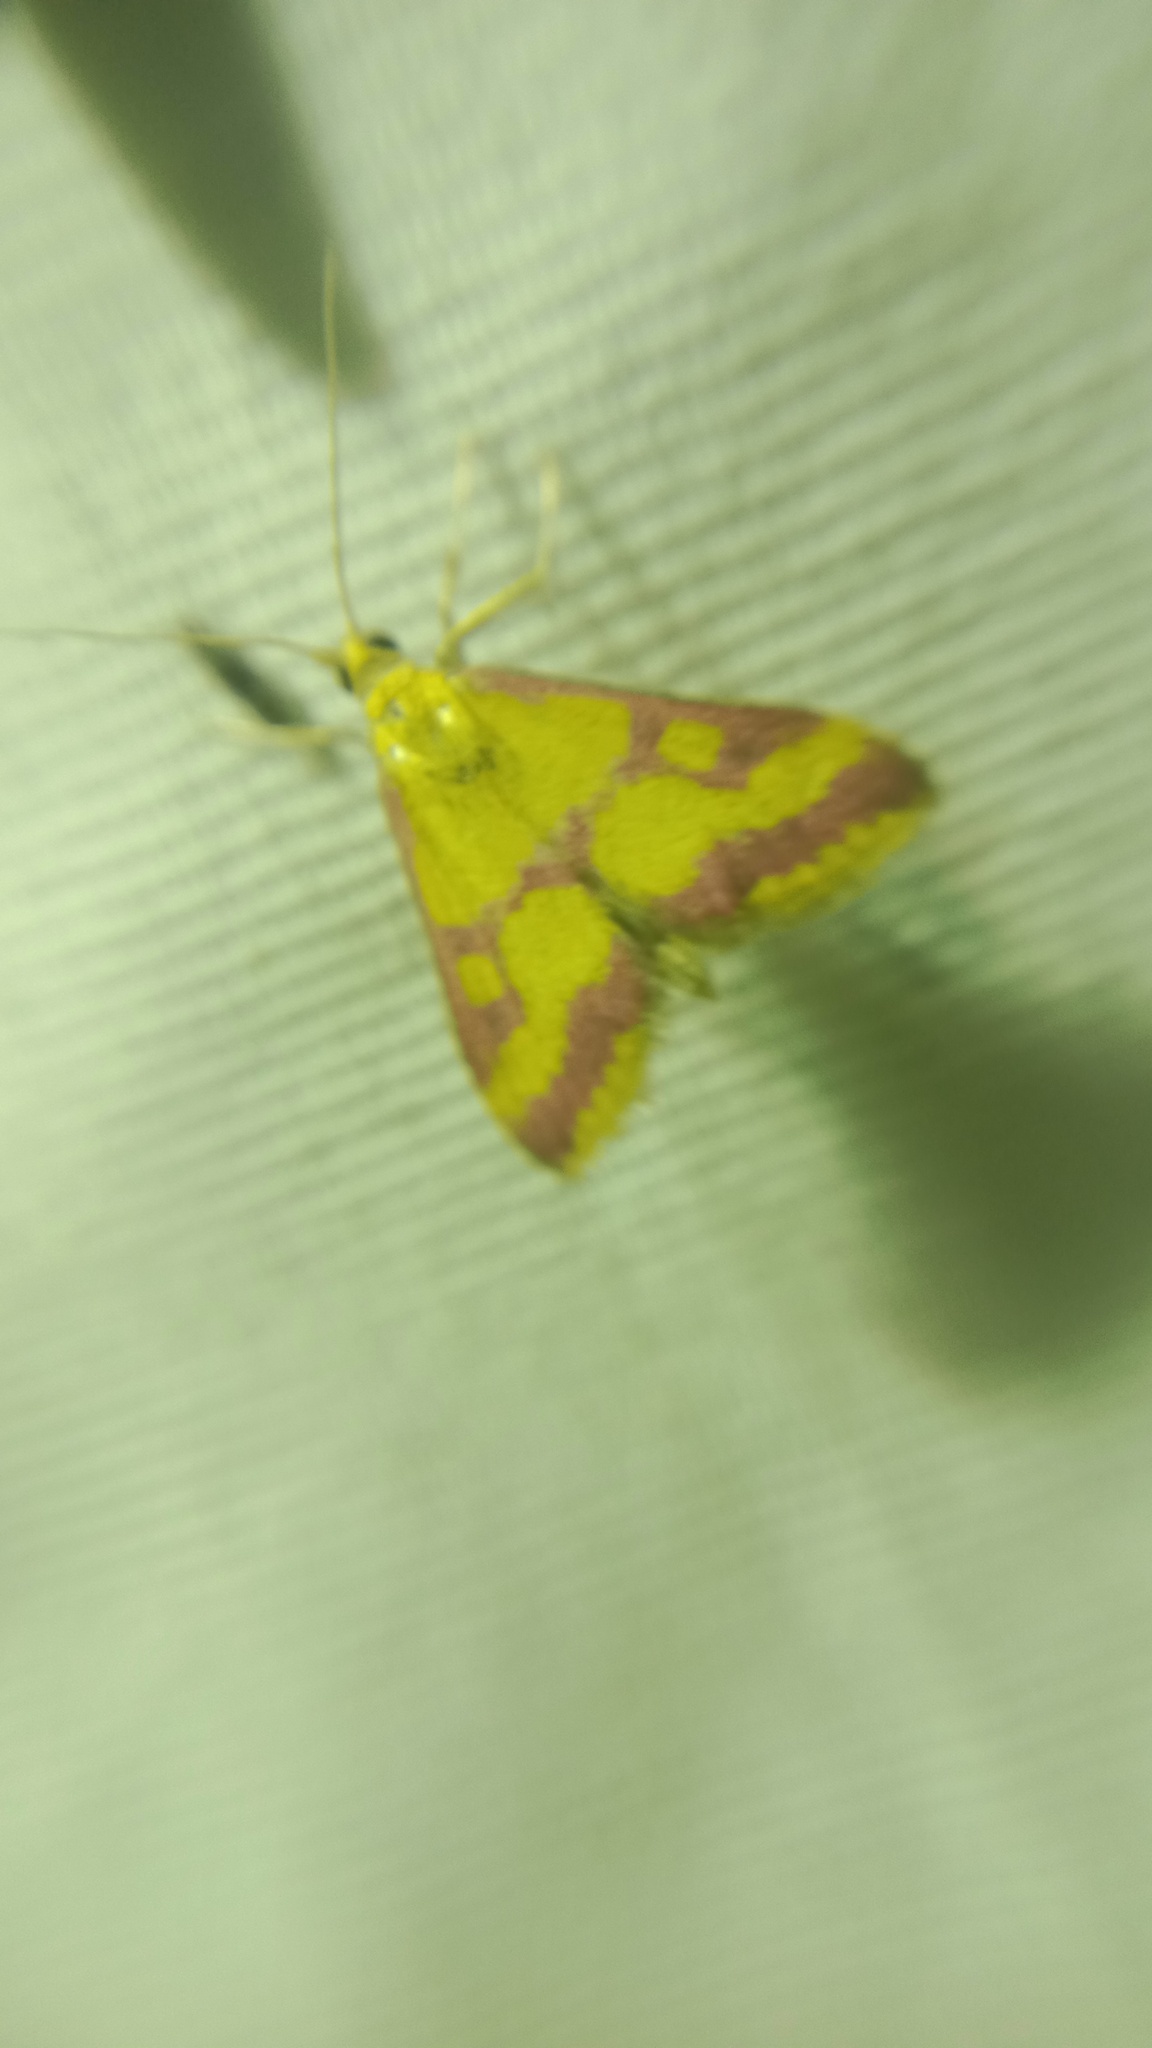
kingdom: Animalia
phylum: Arthropoda
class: Insecta
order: Lepidoptera
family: Crambidae
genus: Pyrausta
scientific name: Pyrausta sanguinalis
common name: Scarce crimson and gold
